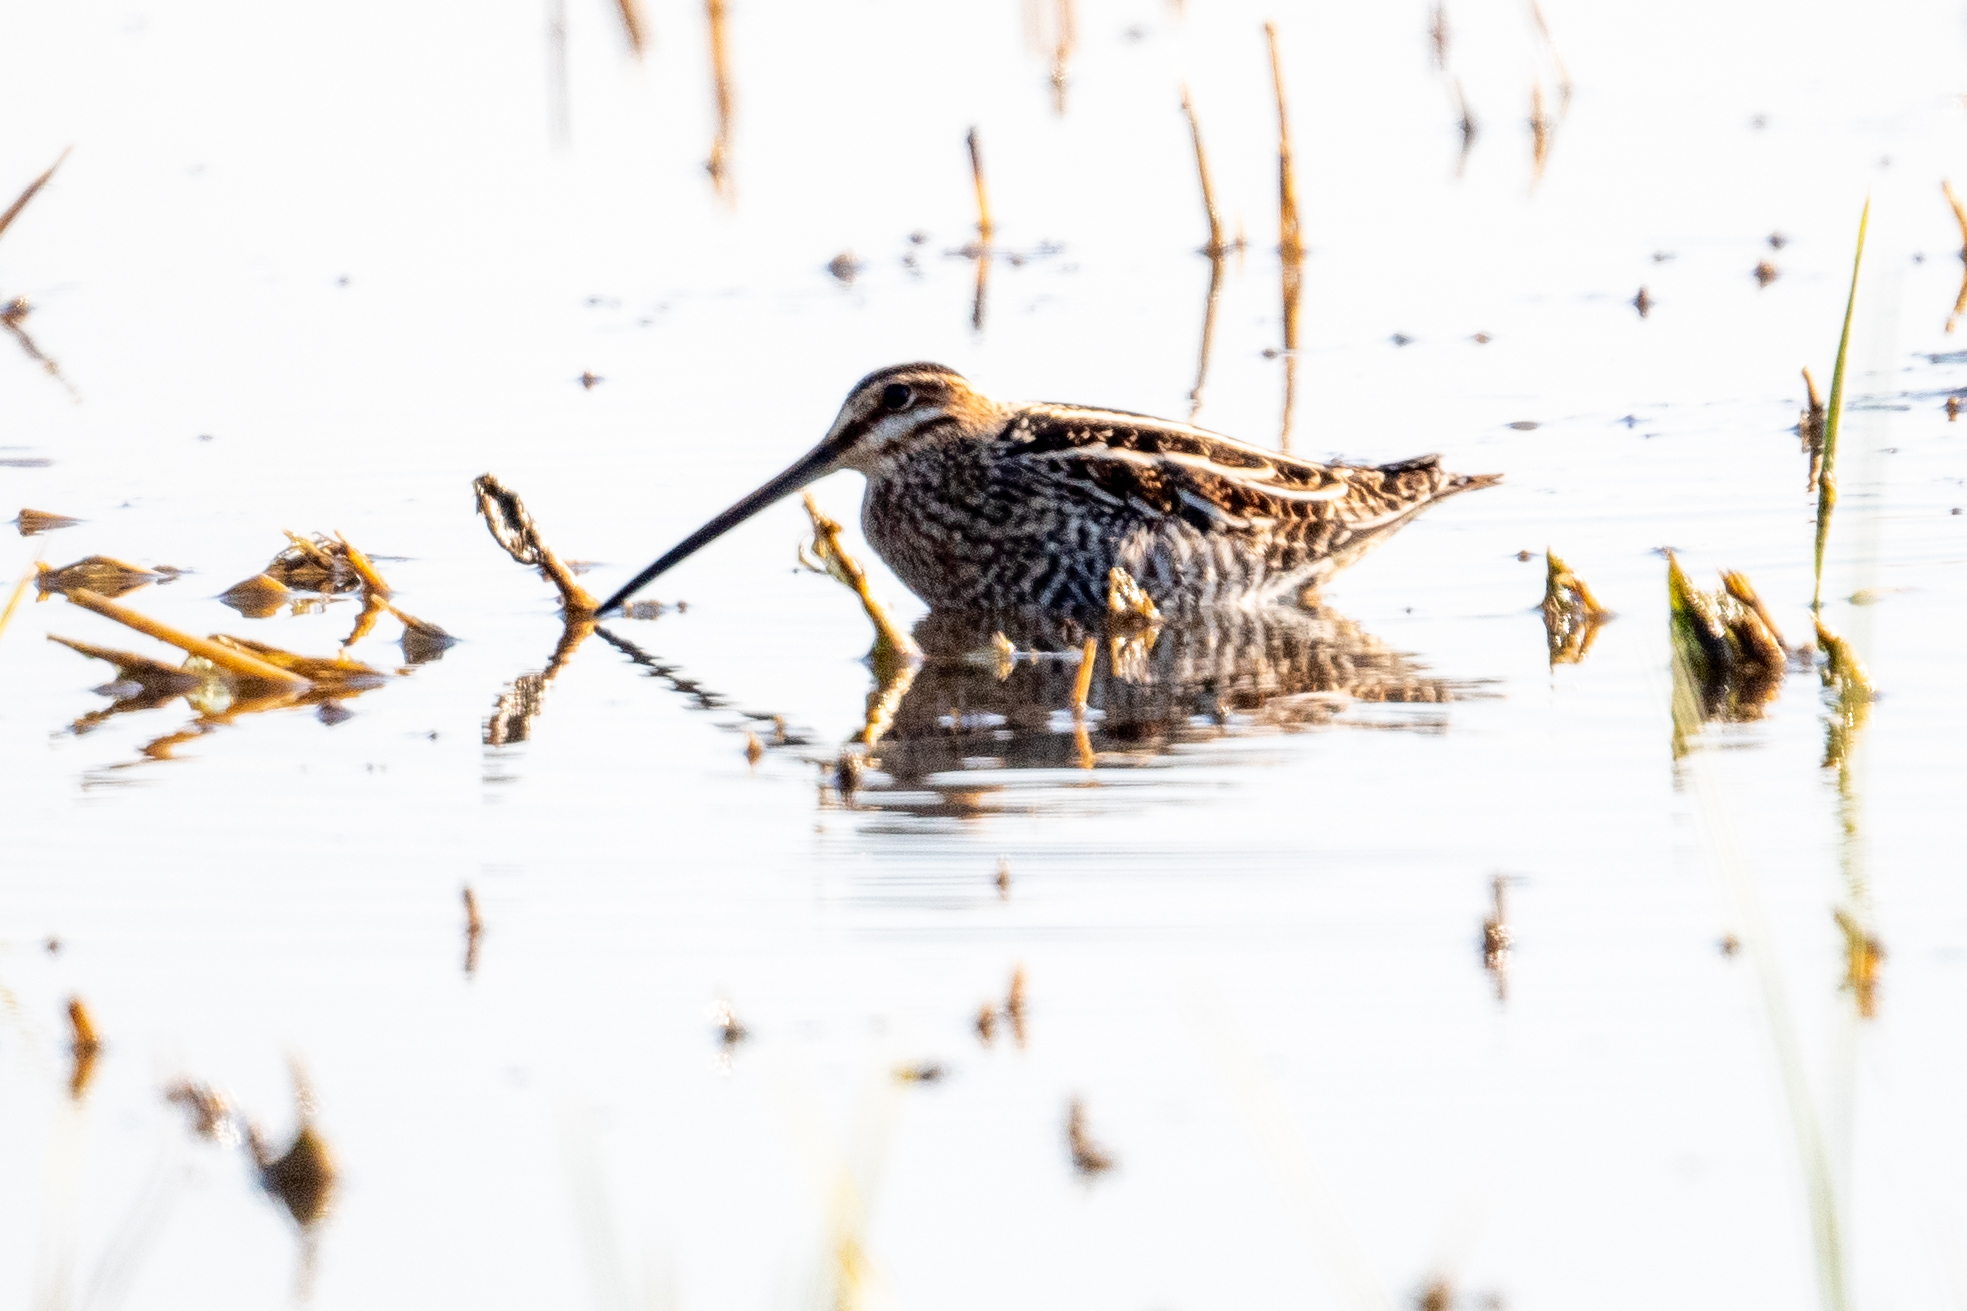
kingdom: Animalia
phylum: Chordata
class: Aves
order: Charadriiformes
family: Scolopacidae
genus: Gallinago
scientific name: Gallinago delicata
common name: Wilson's snipe
